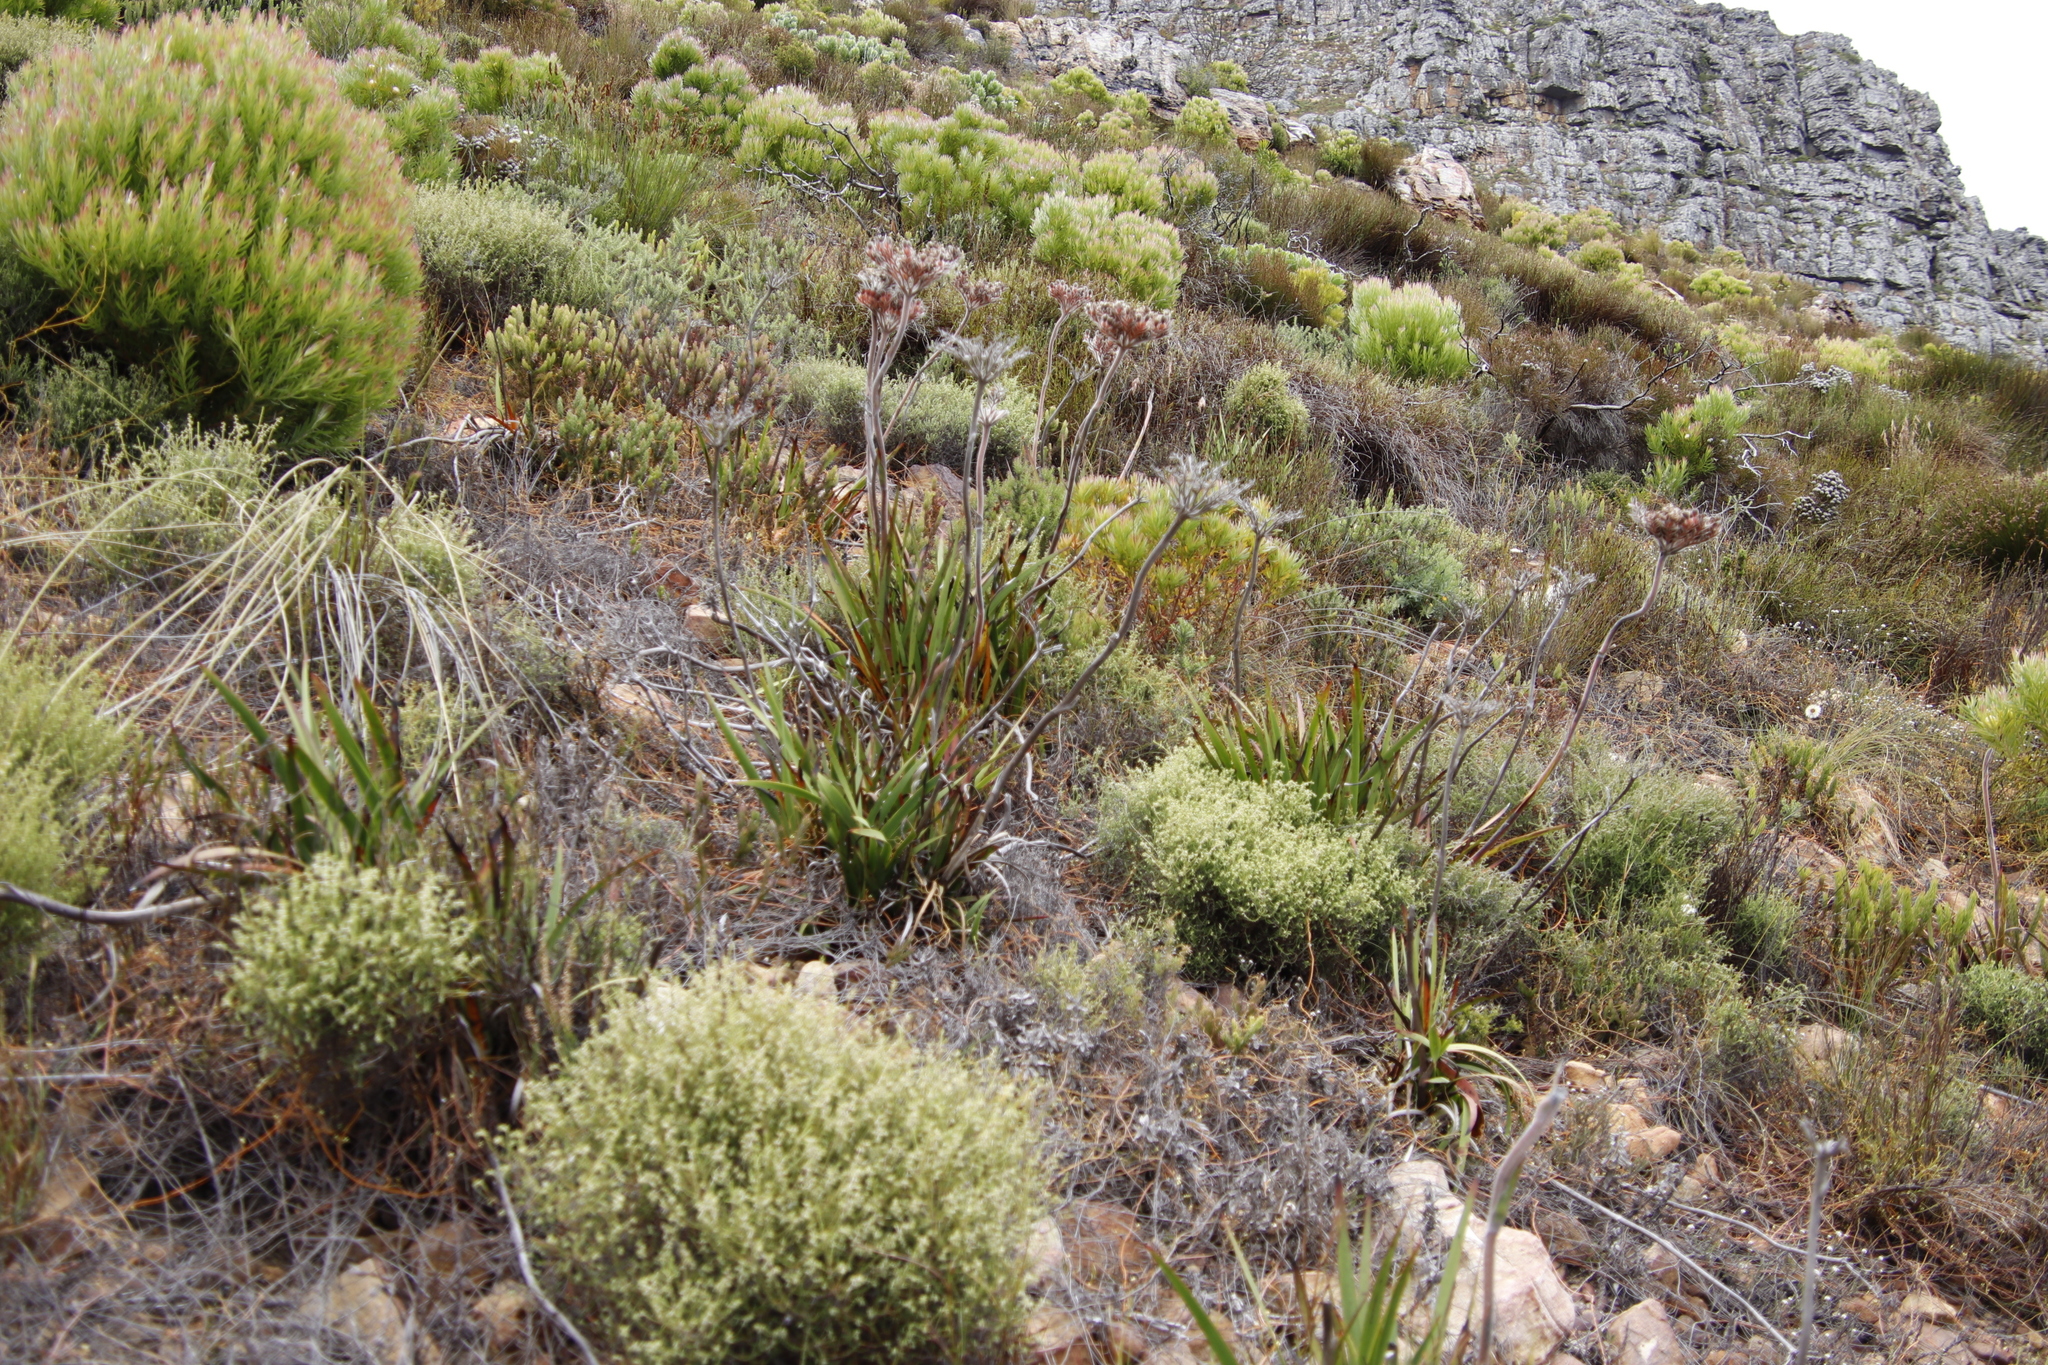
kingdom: Plantae
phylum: Tracheophyta
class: Liliopsida
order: Commelinales
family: Haemodoraceae
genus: Dilatris
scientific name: Dilatris corymbosa
